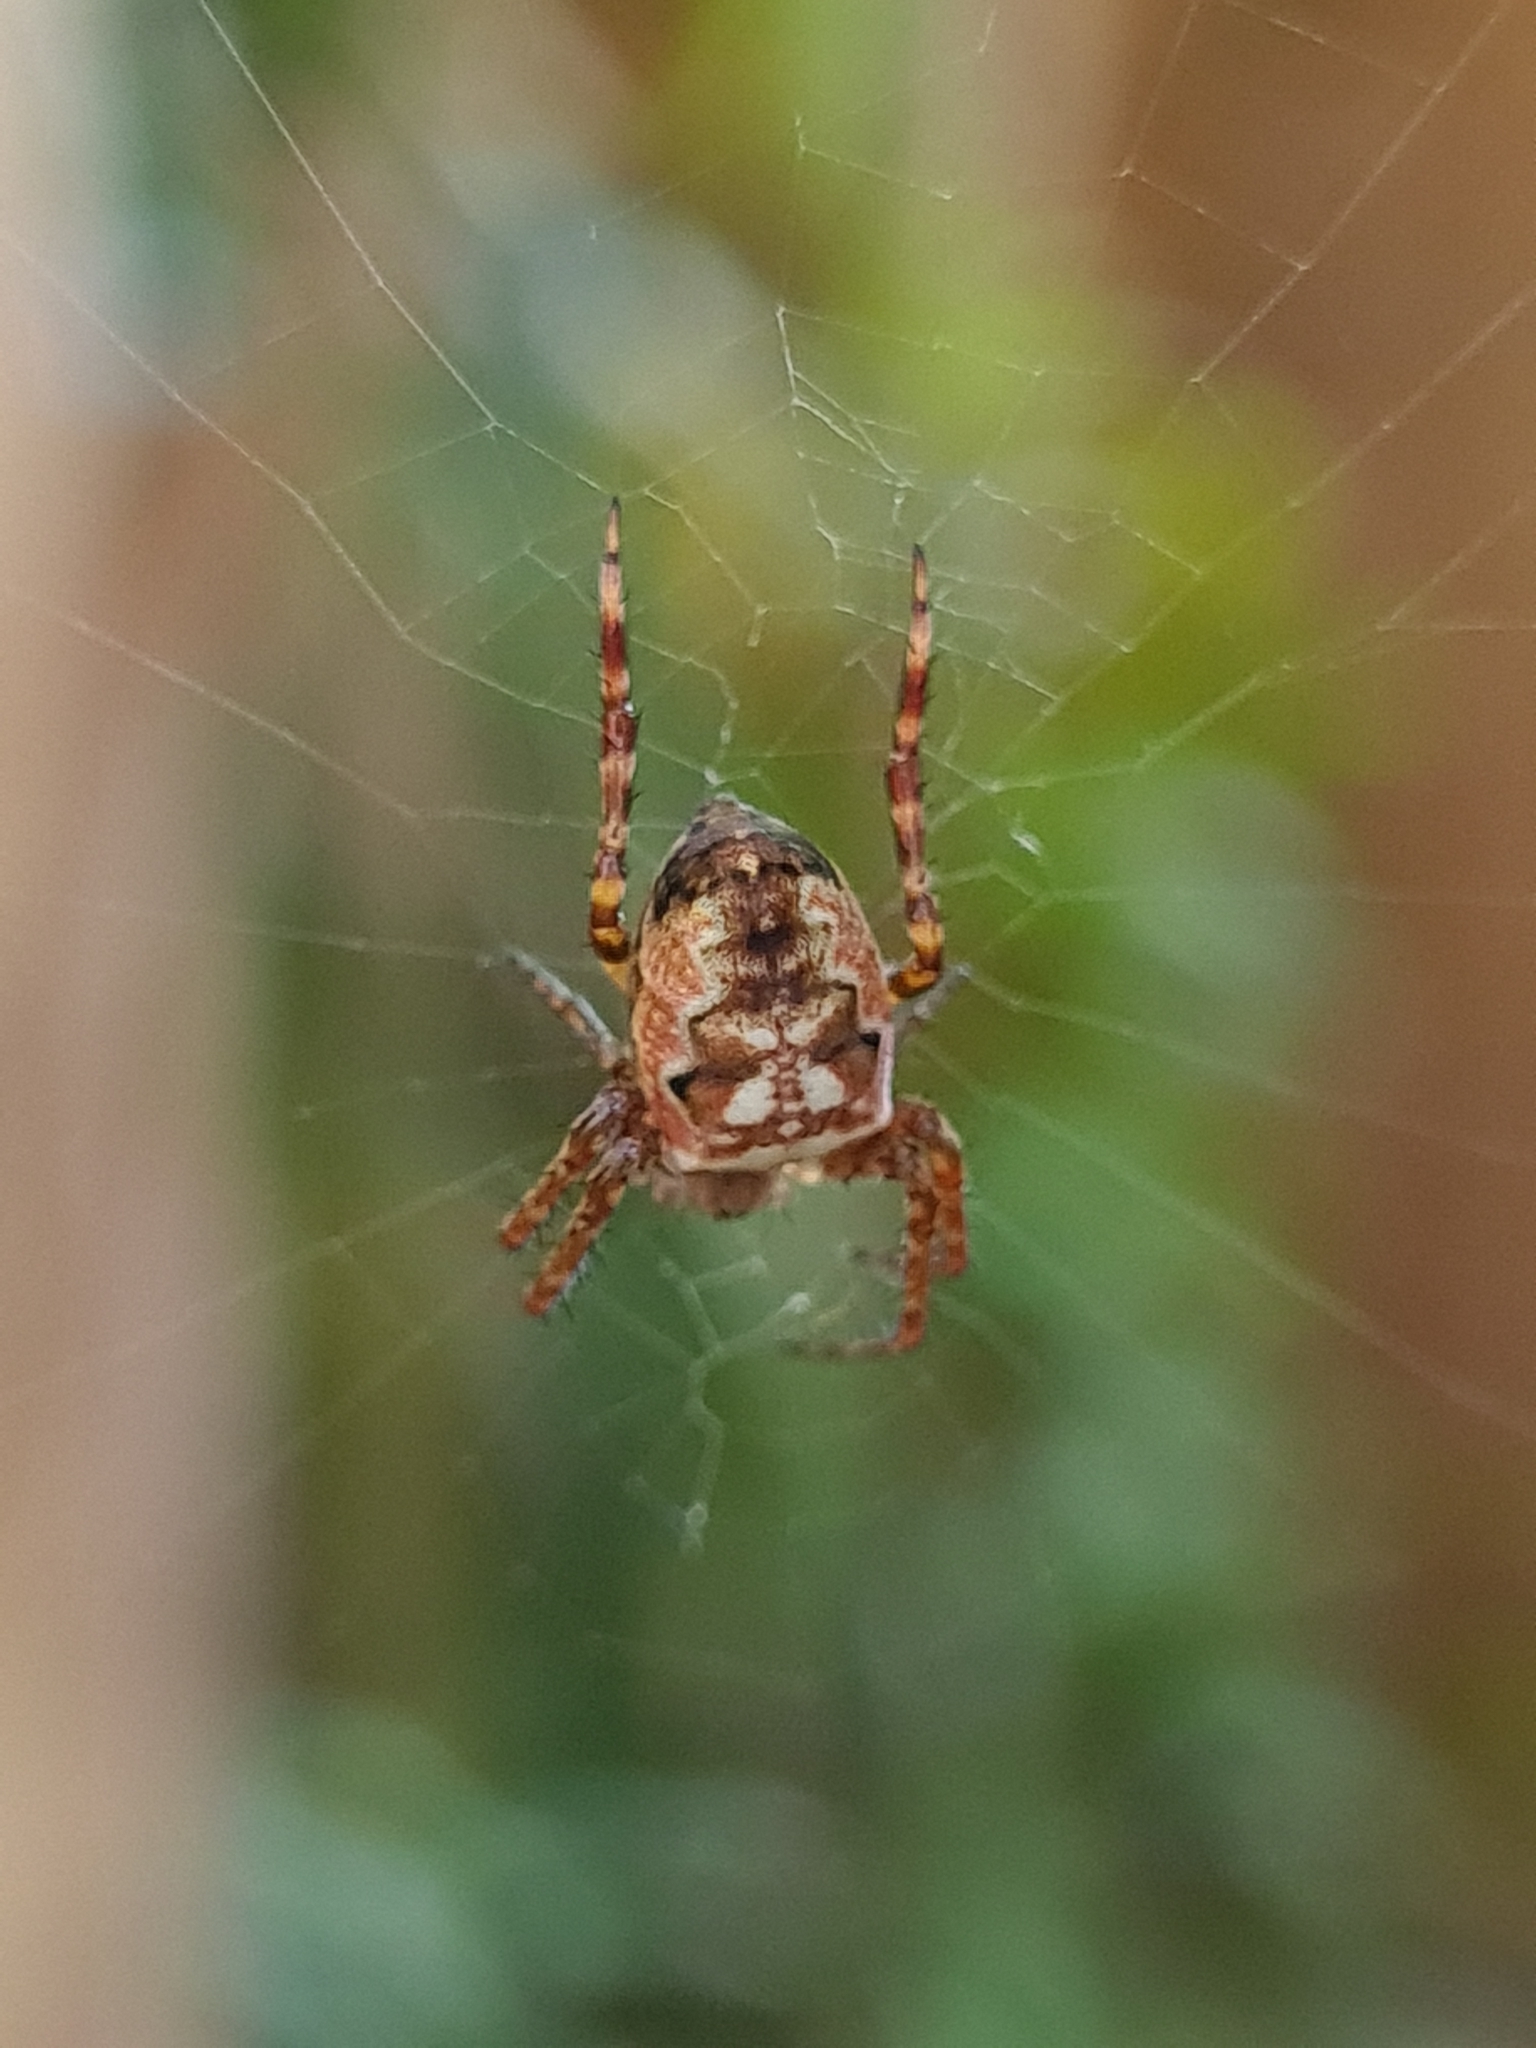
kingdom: Animalia
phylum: Arthropoda
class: Arachnida
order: Araneae
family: Araneidae
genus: Plebs
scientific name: Plebs eburnus
